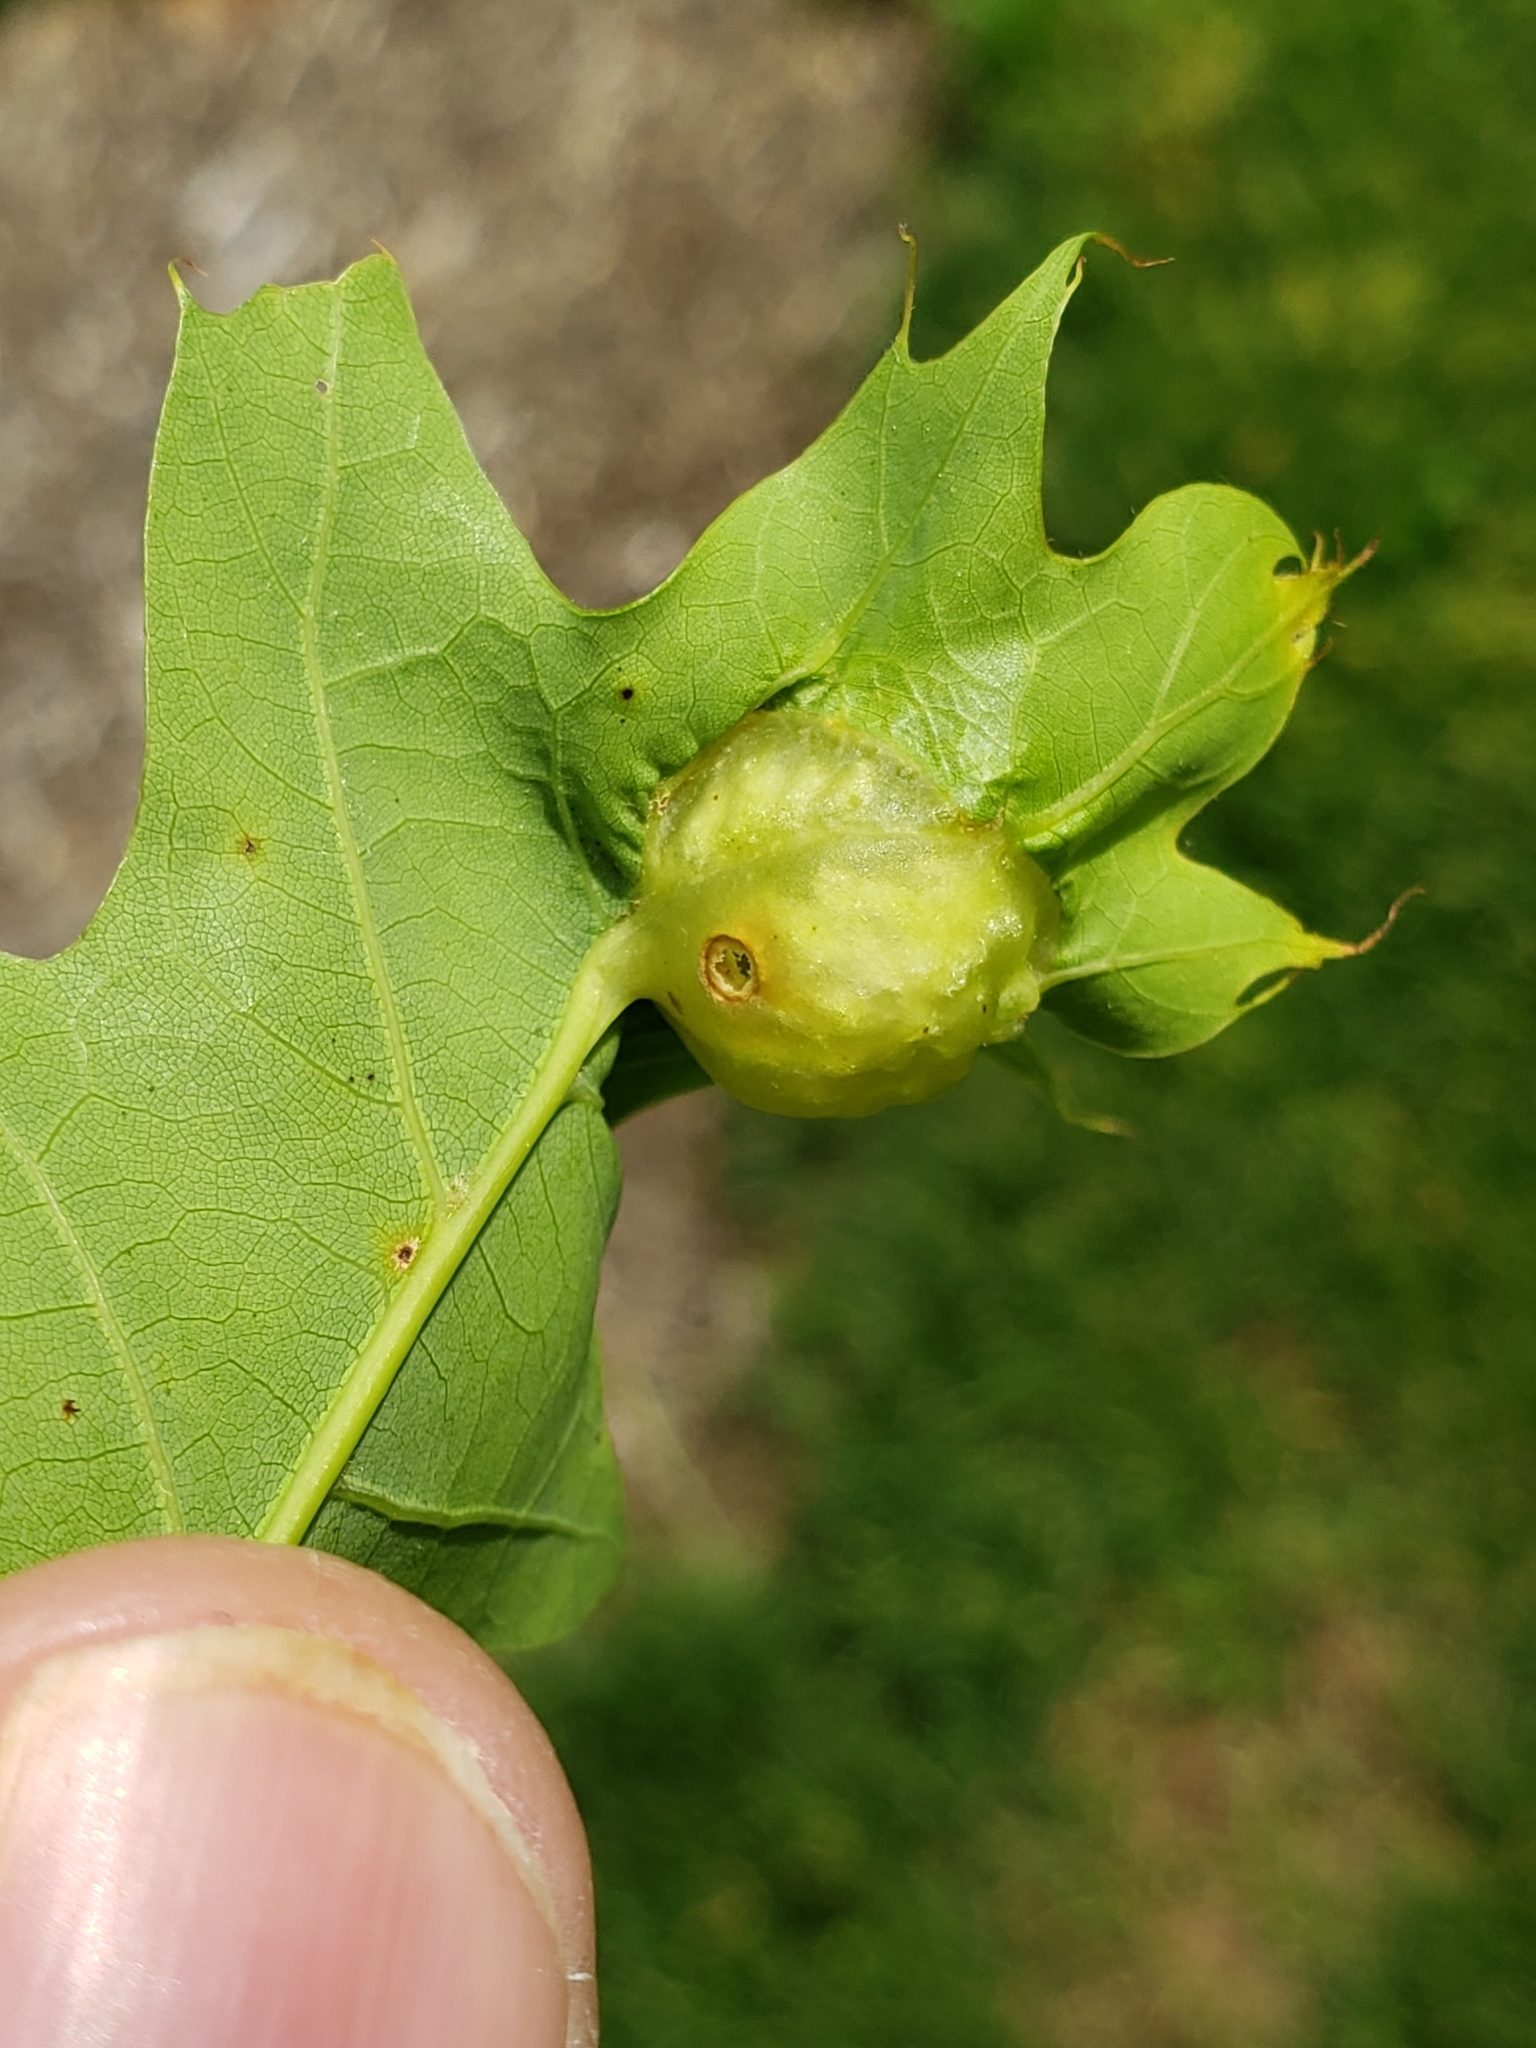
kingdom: Animalia
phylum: Arthropoda
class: Insecta
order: Hymenoptera
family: Cynipidae
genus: Dryocosmus
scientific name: Dryocosmus quercuspalustris
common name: Succulent oak gall wasp
